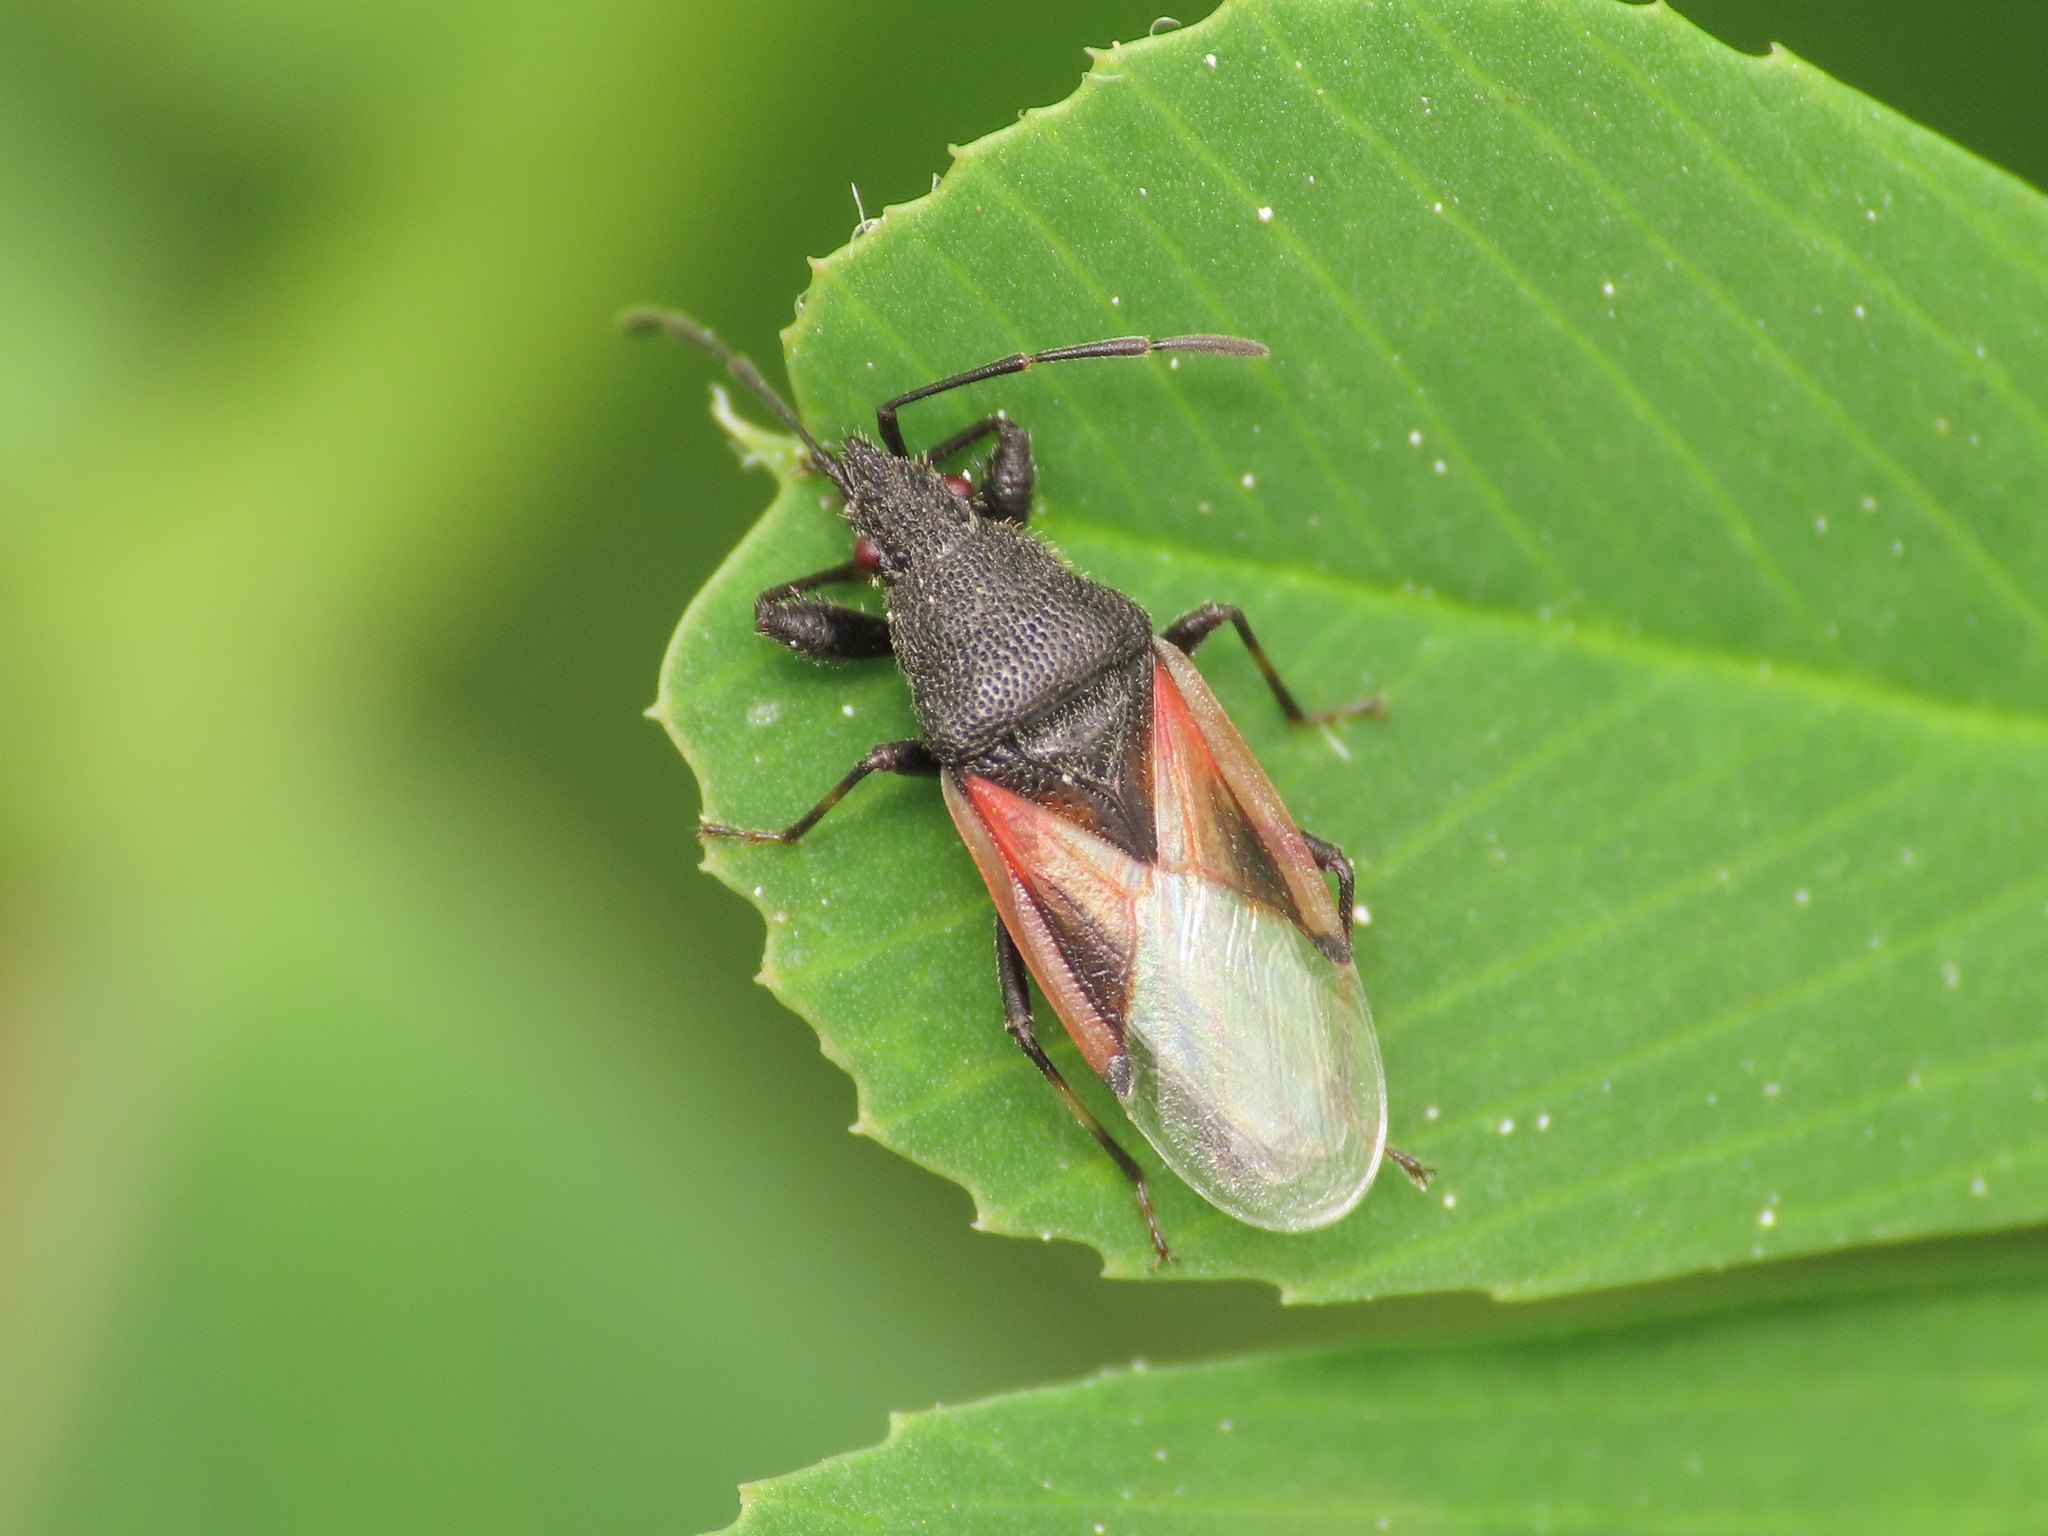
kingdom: Animalia
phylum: Arthropoda
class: Insecta
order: Hemiptera
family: Oxycarenidae
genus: Oxycarenus
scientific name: Oxycarenus lavaterae
